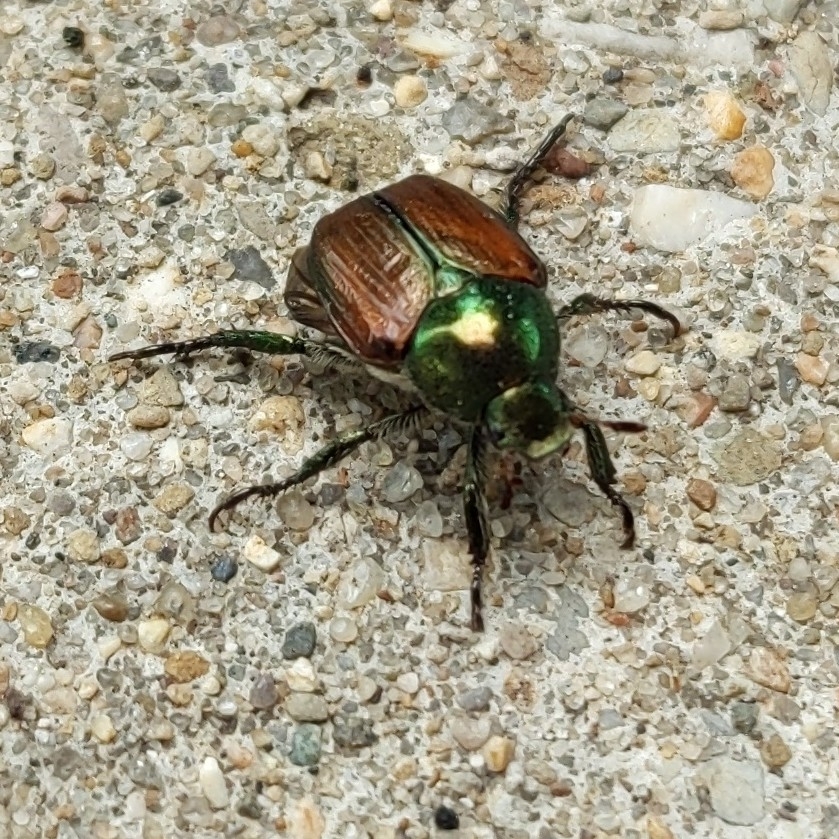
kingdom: Animalia
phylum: Arthropoda
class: Insecta
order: Coleoptera
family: Scarabaeidae
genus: Popillia
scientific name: Popillia japonica
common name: Japanese beetle
